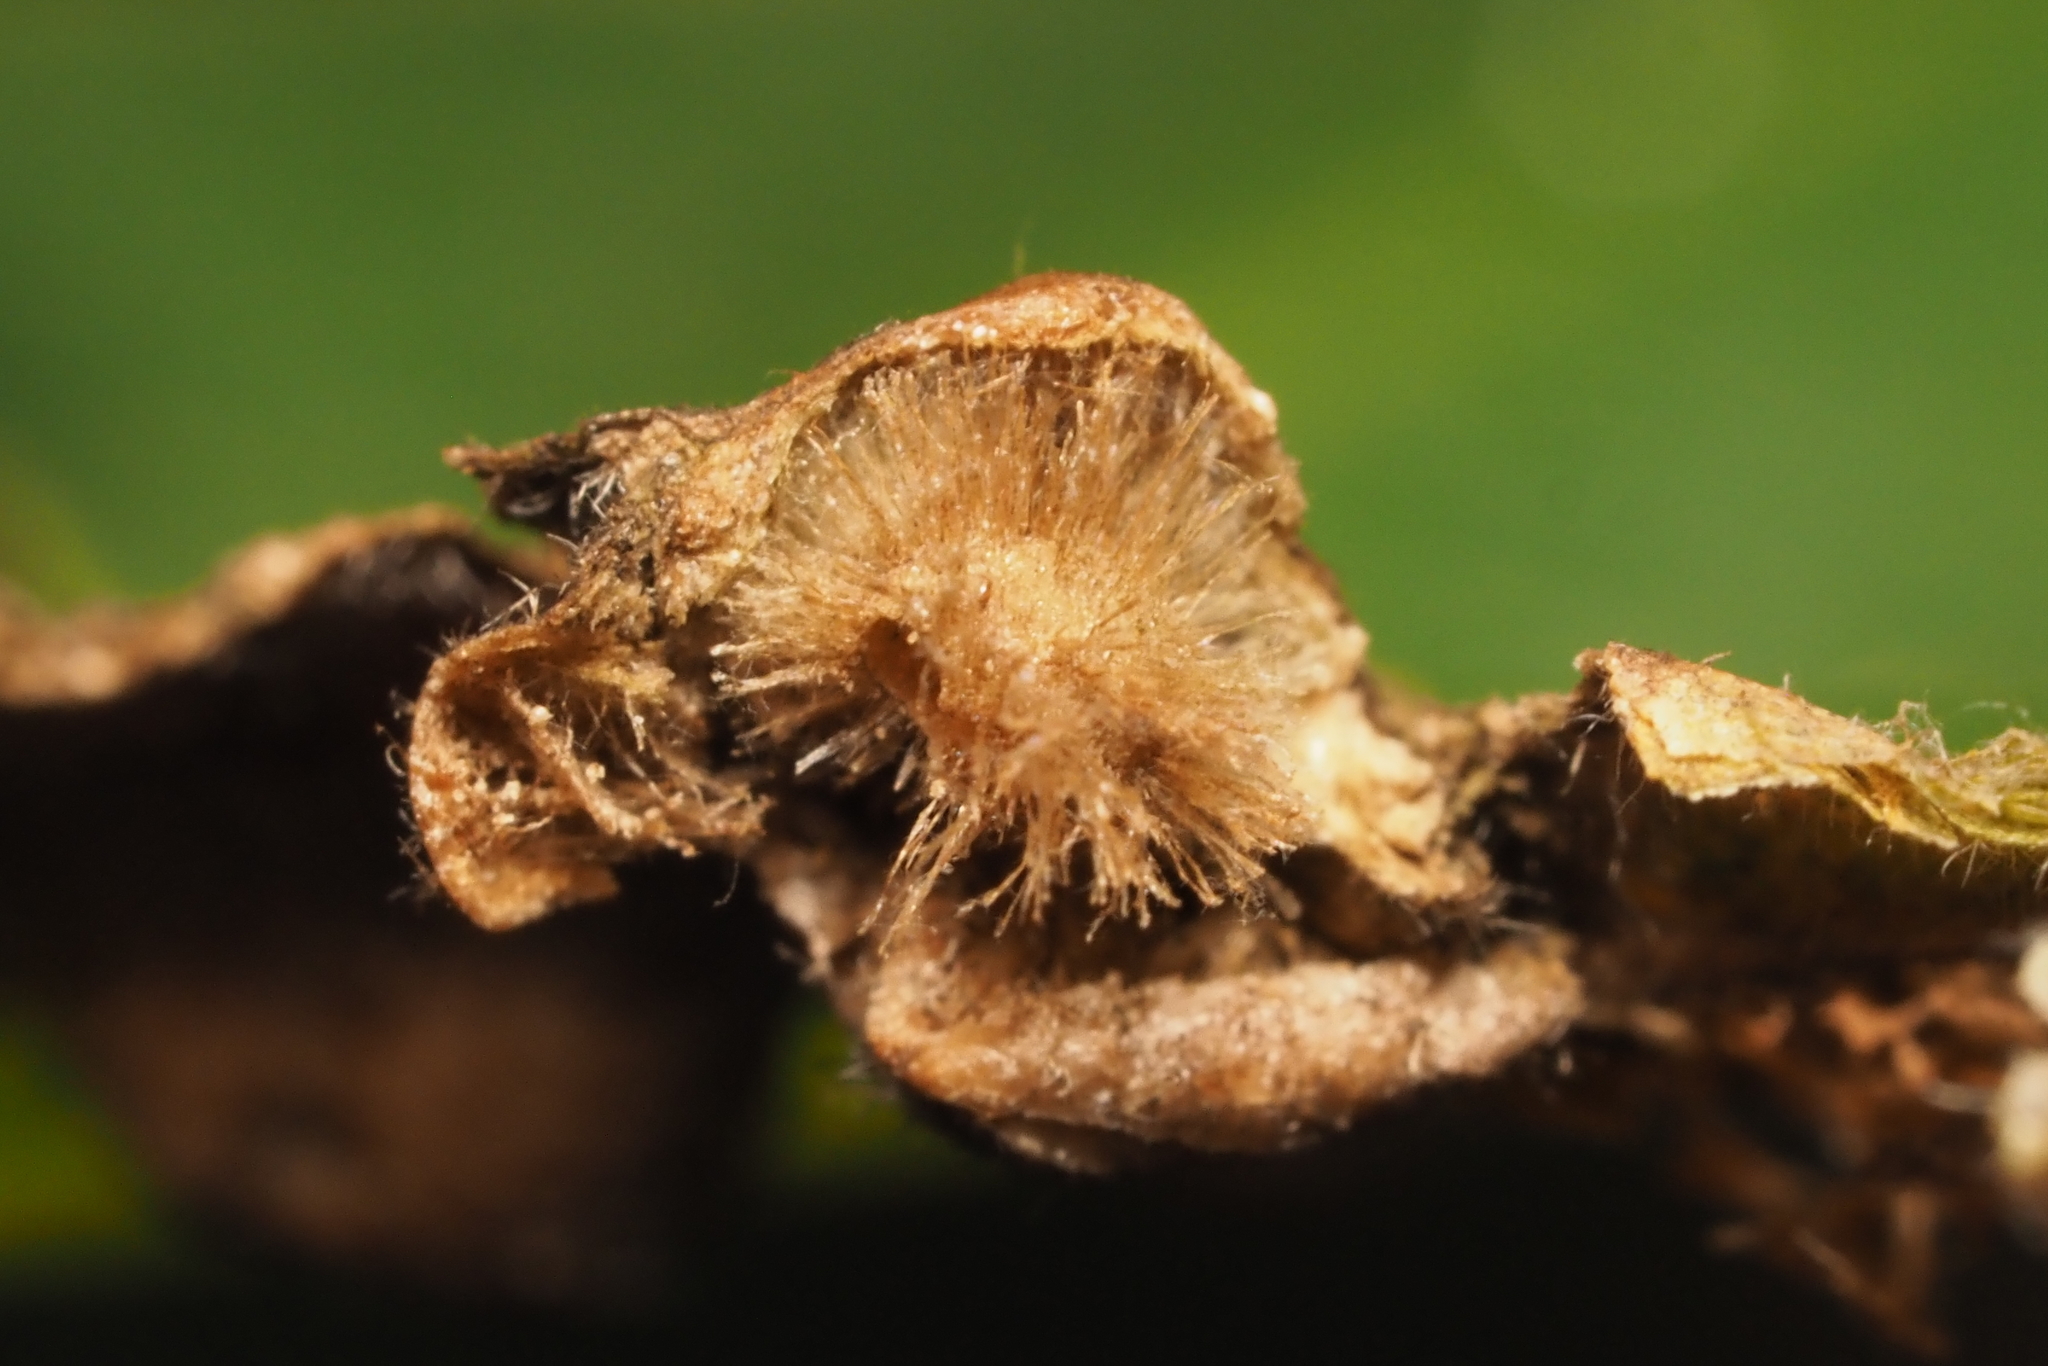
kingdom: Animalia
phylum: Arthropoda
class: Insecta
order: Hymenoptera
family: Cynipidae
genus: Callirhytis
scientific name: Callirhytis
